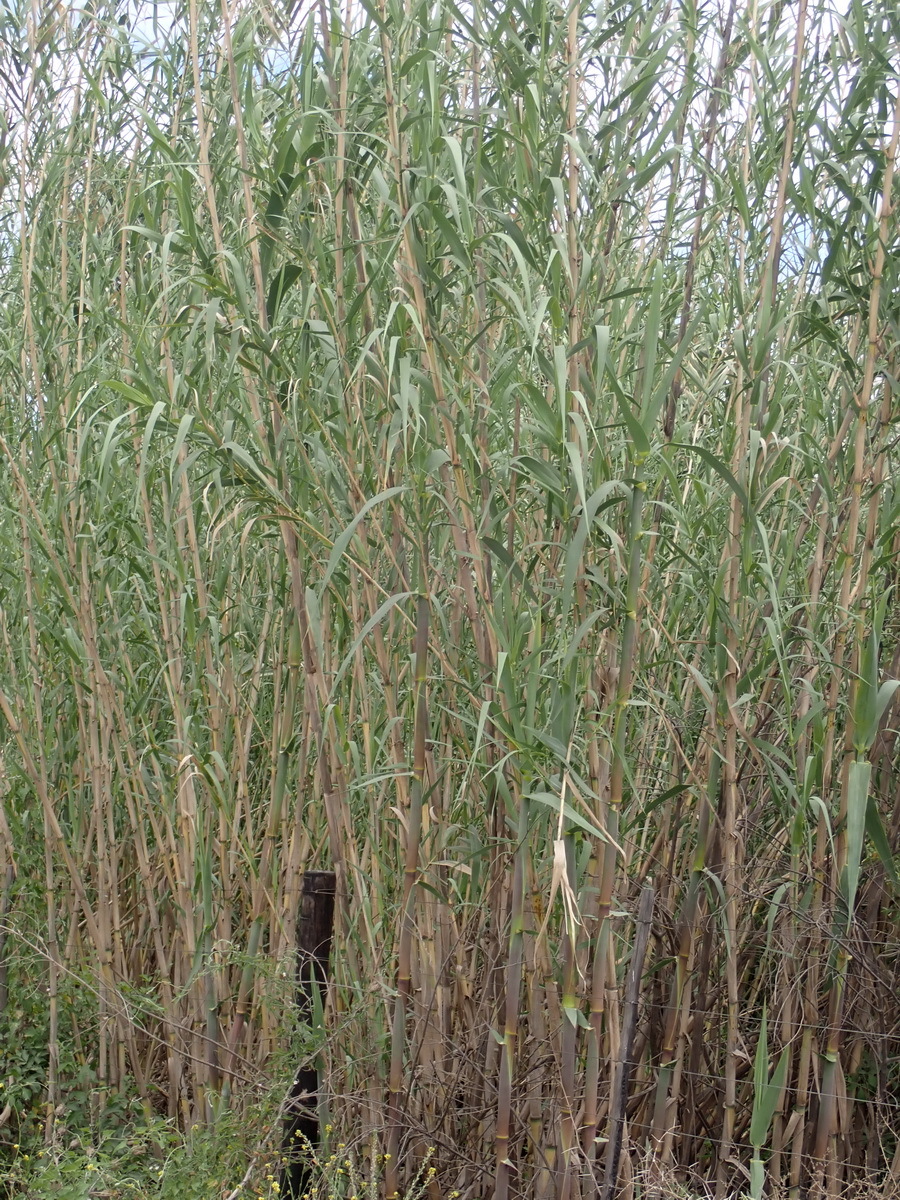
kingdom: Plantae
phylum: Tracheophyta
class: Liliopsida
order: Poales
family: Poaceae
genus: Arundo
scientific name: Arundo donax
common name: Giant reed
